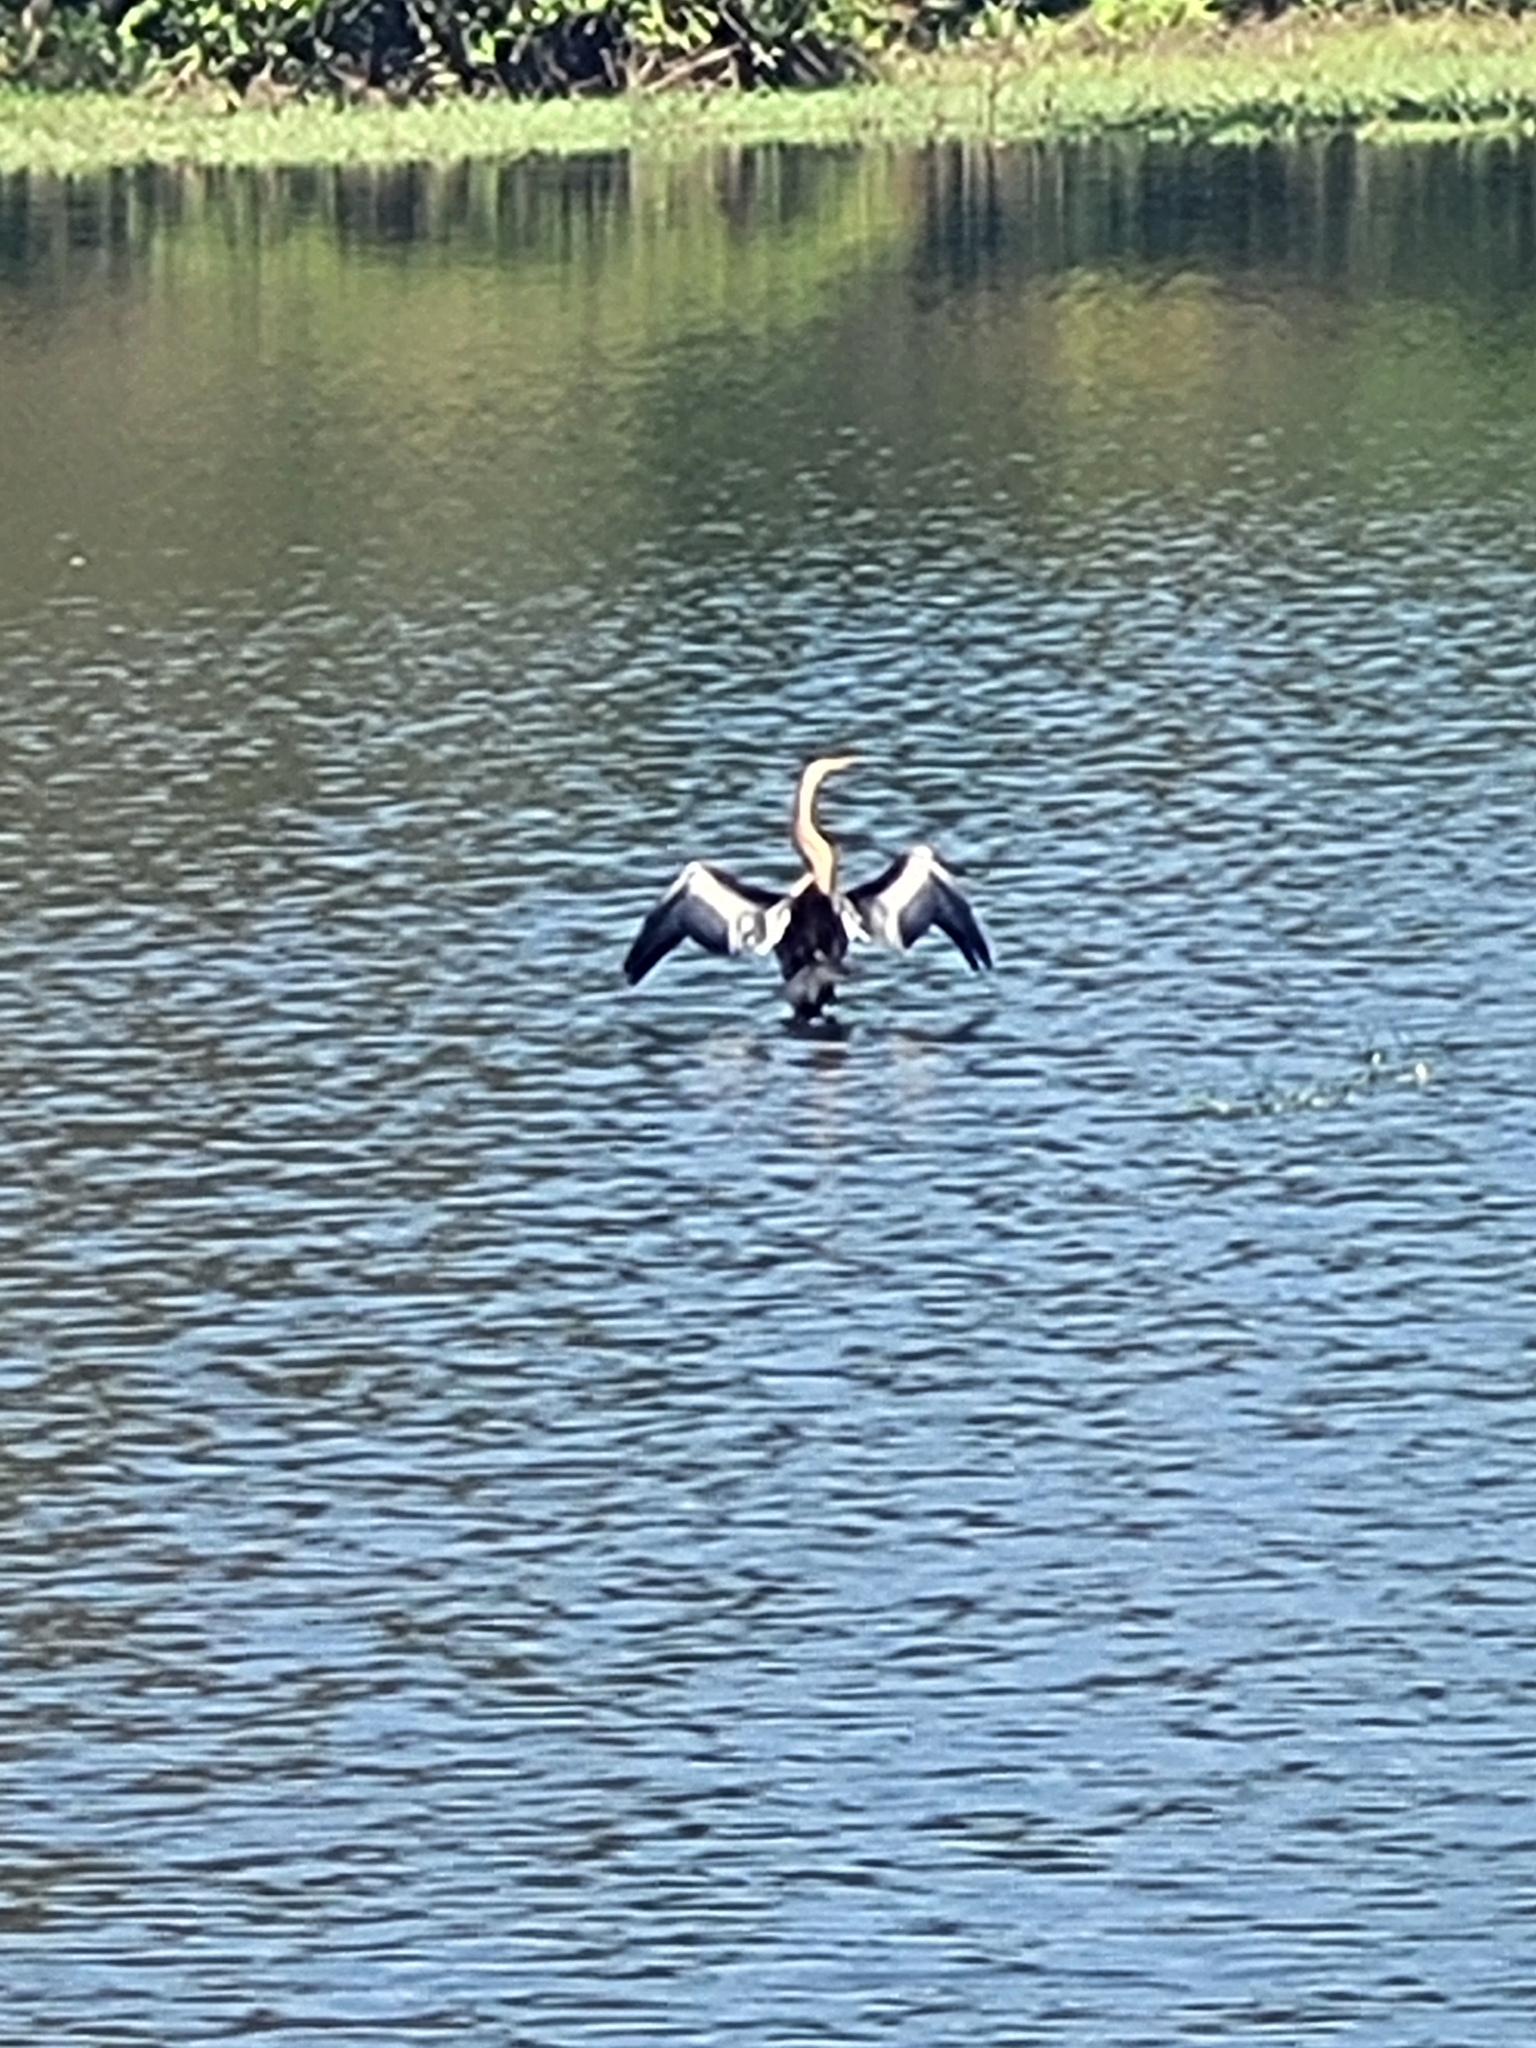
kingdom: Animalia
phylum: Chordata
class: Aves
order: Suliformes
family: Anhingidae
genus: Anhinga
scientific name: Anhinga melanogaster
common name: Oriental darter
